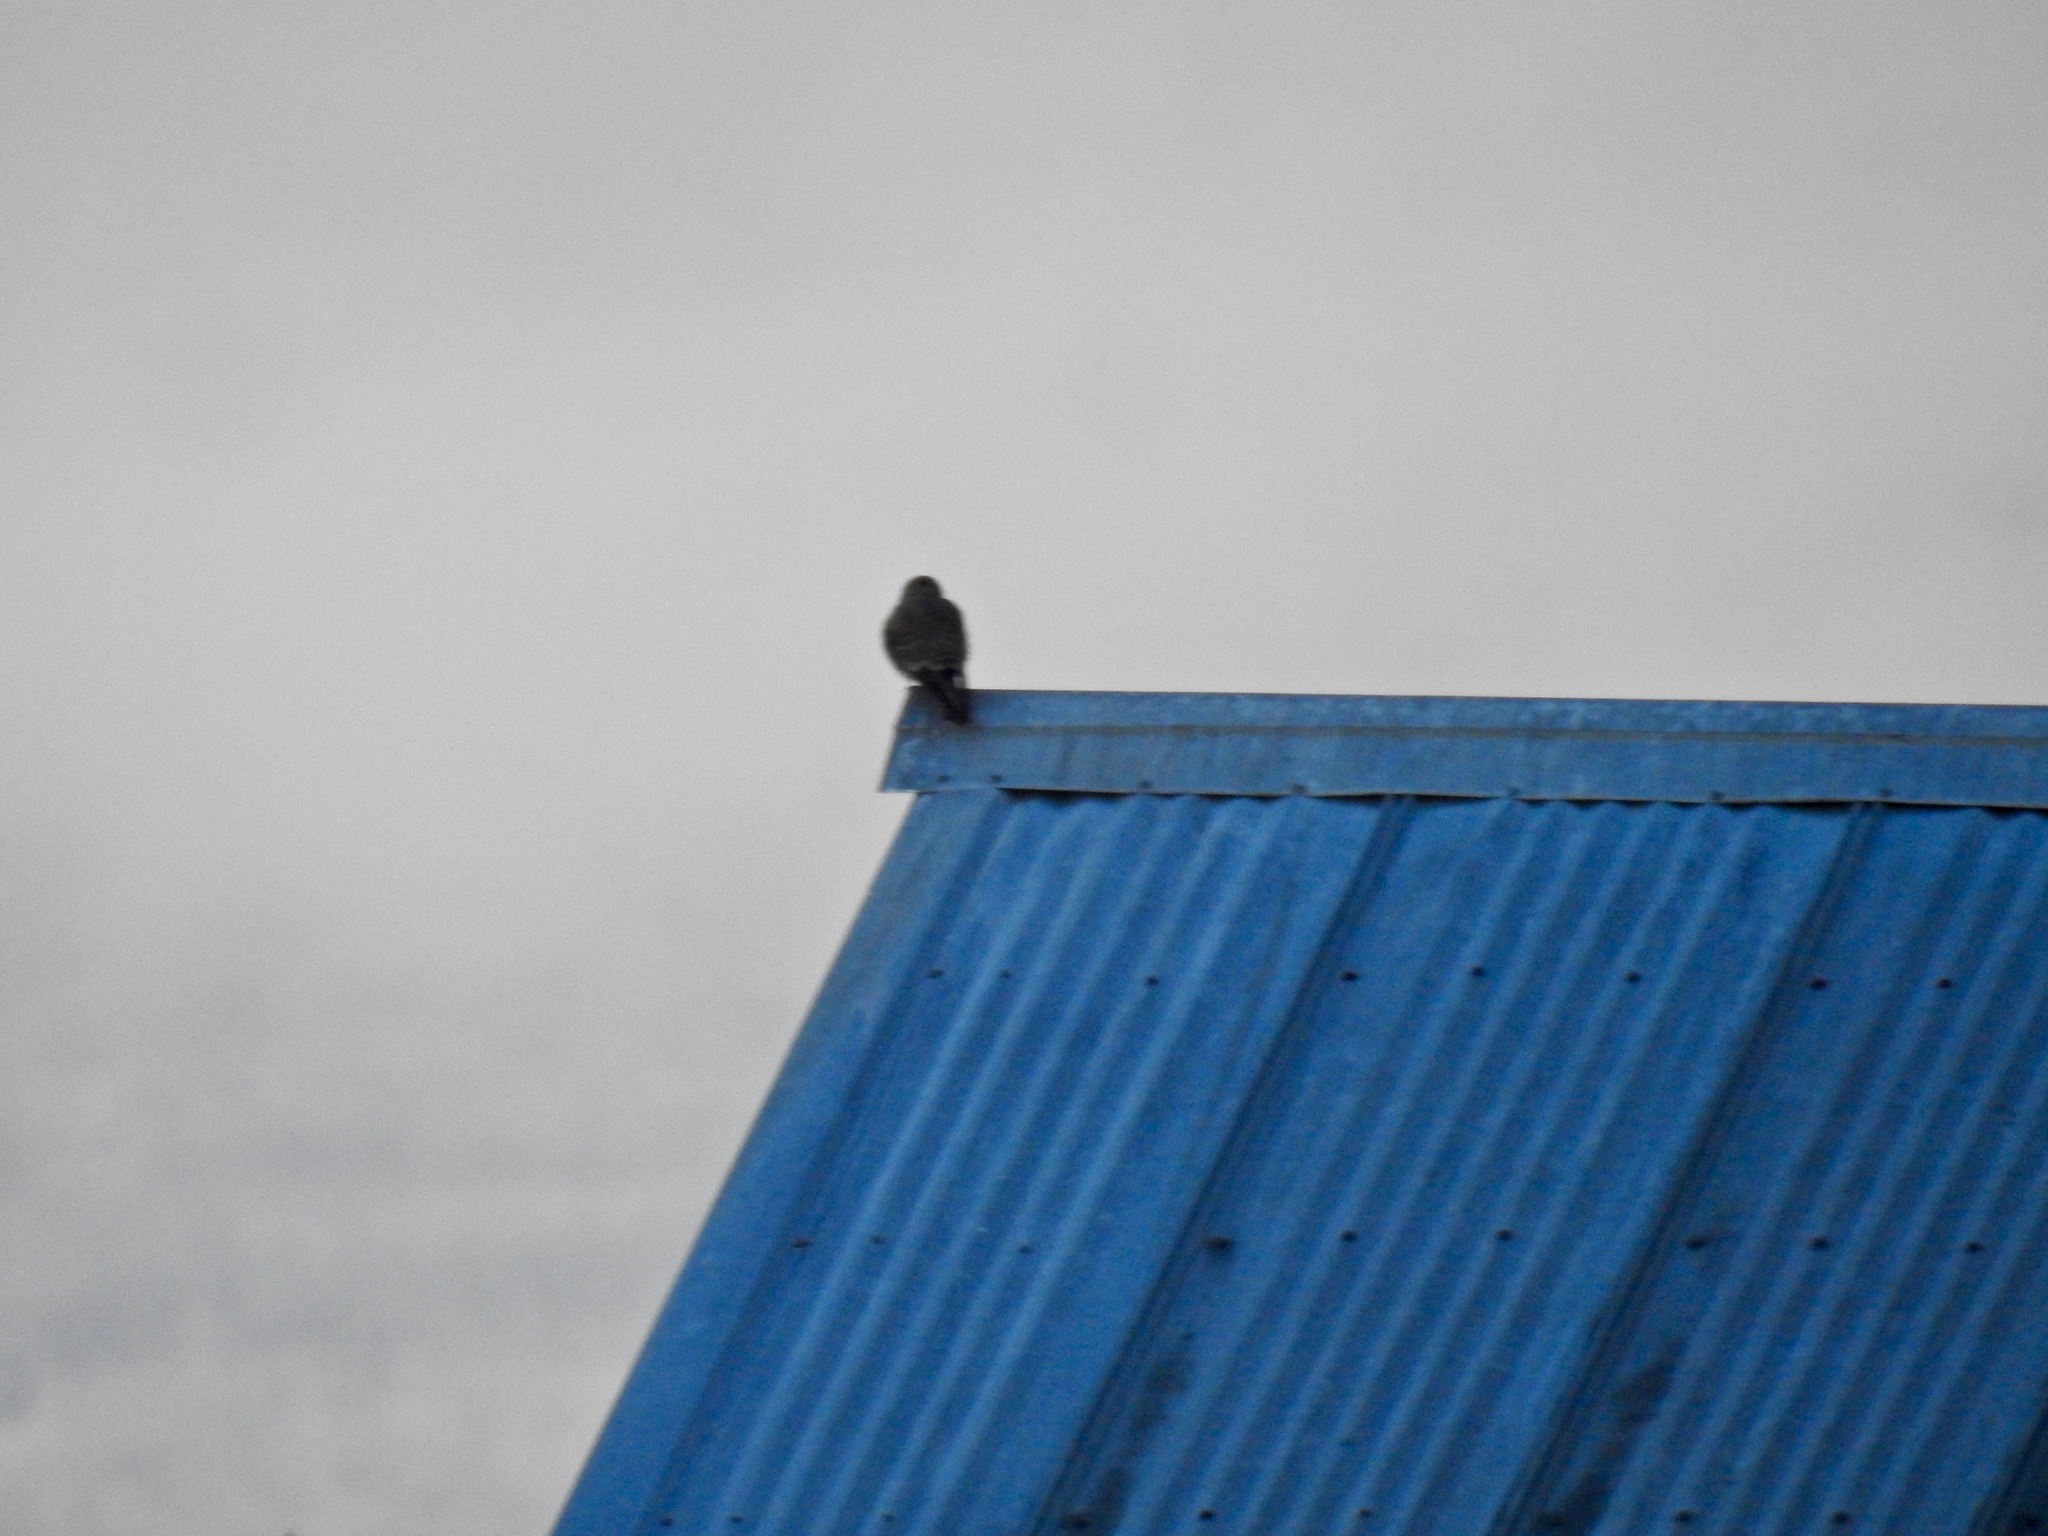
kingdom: Animalia
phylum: Chordata
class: Aves
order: Falconiformes
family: Falconidae
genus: Falco
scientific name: Falco mexicanus
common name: Prairie falcon
